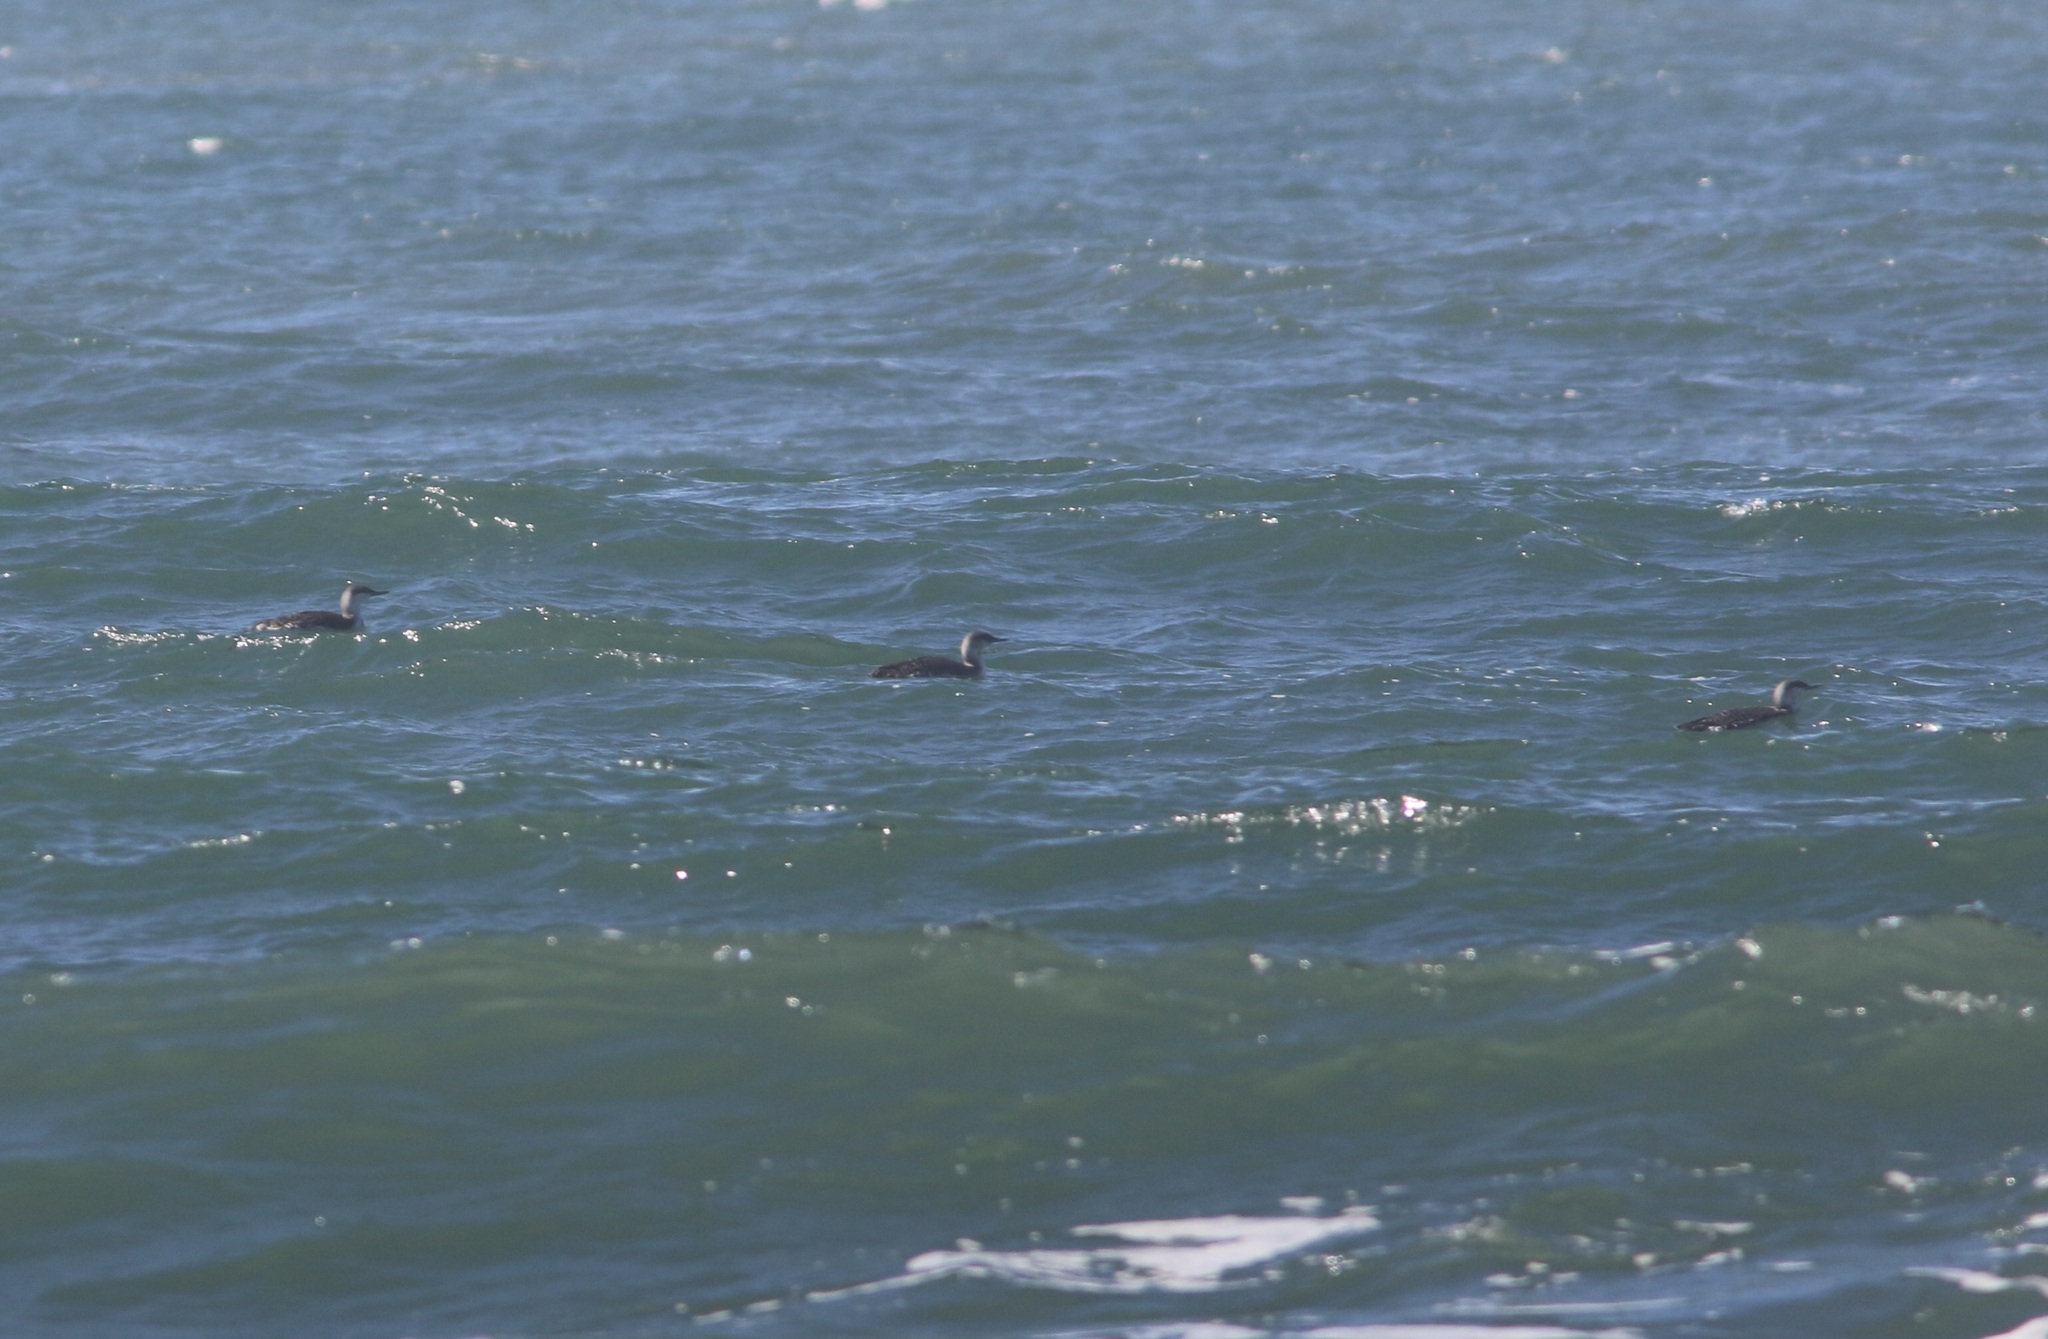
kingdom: Animalia
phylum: Chordata
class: Aves
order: Gaviiformes
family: Gaviidae
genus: Gavia
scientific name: Gavia stellata
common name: Red-throated loon
